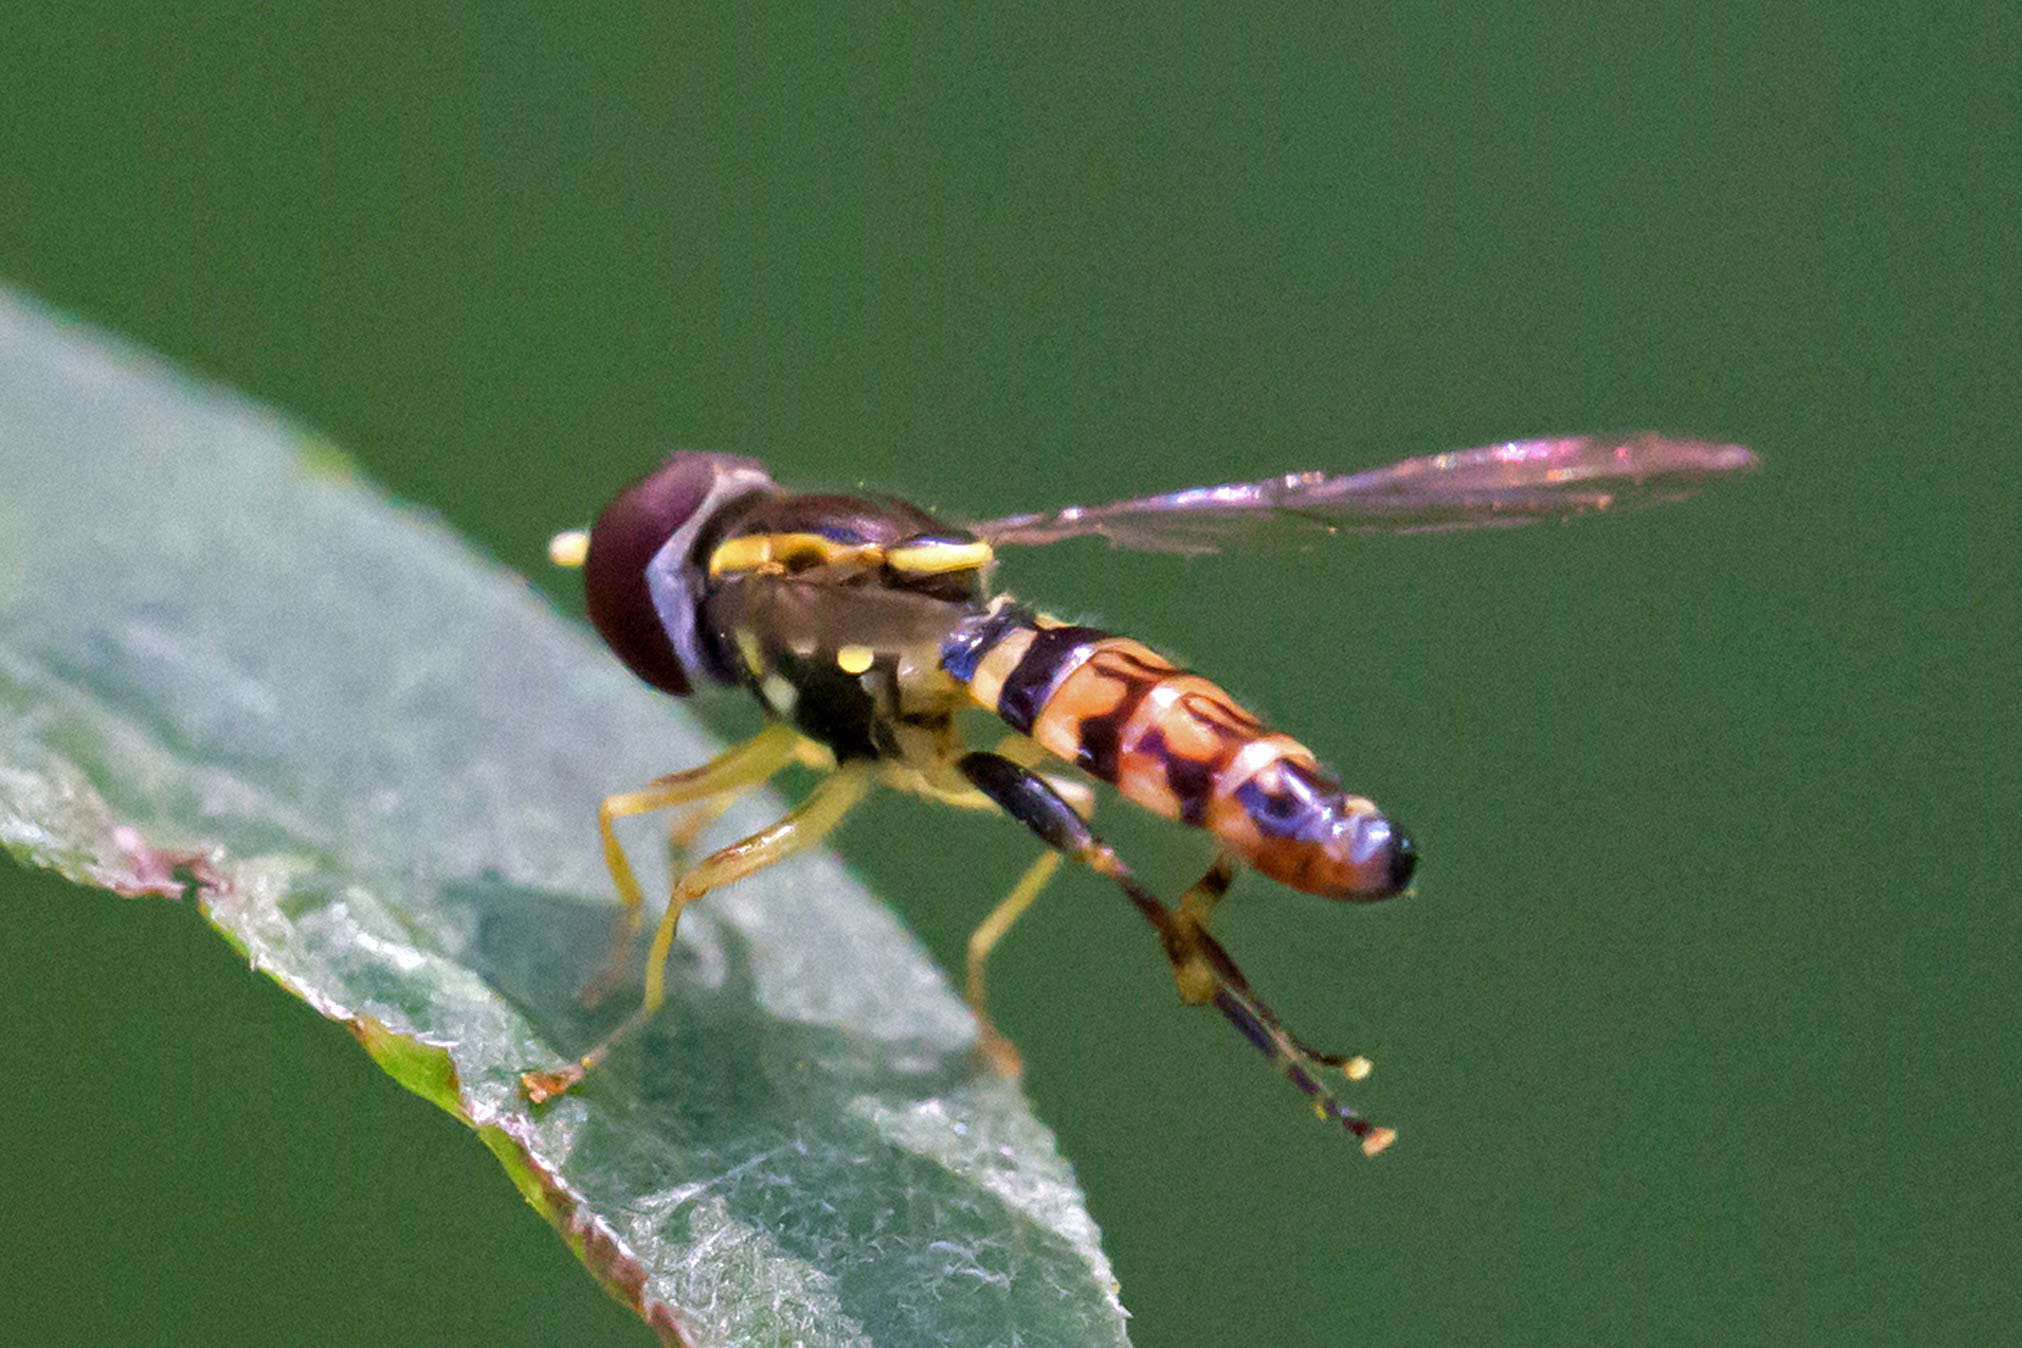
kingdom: Animalia
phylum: Arthropoda
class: Insecta
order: Diptera
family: Syrphidae
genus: Toxomerus
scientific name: Toxomerus geminatus
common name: Eastern calligrapher
